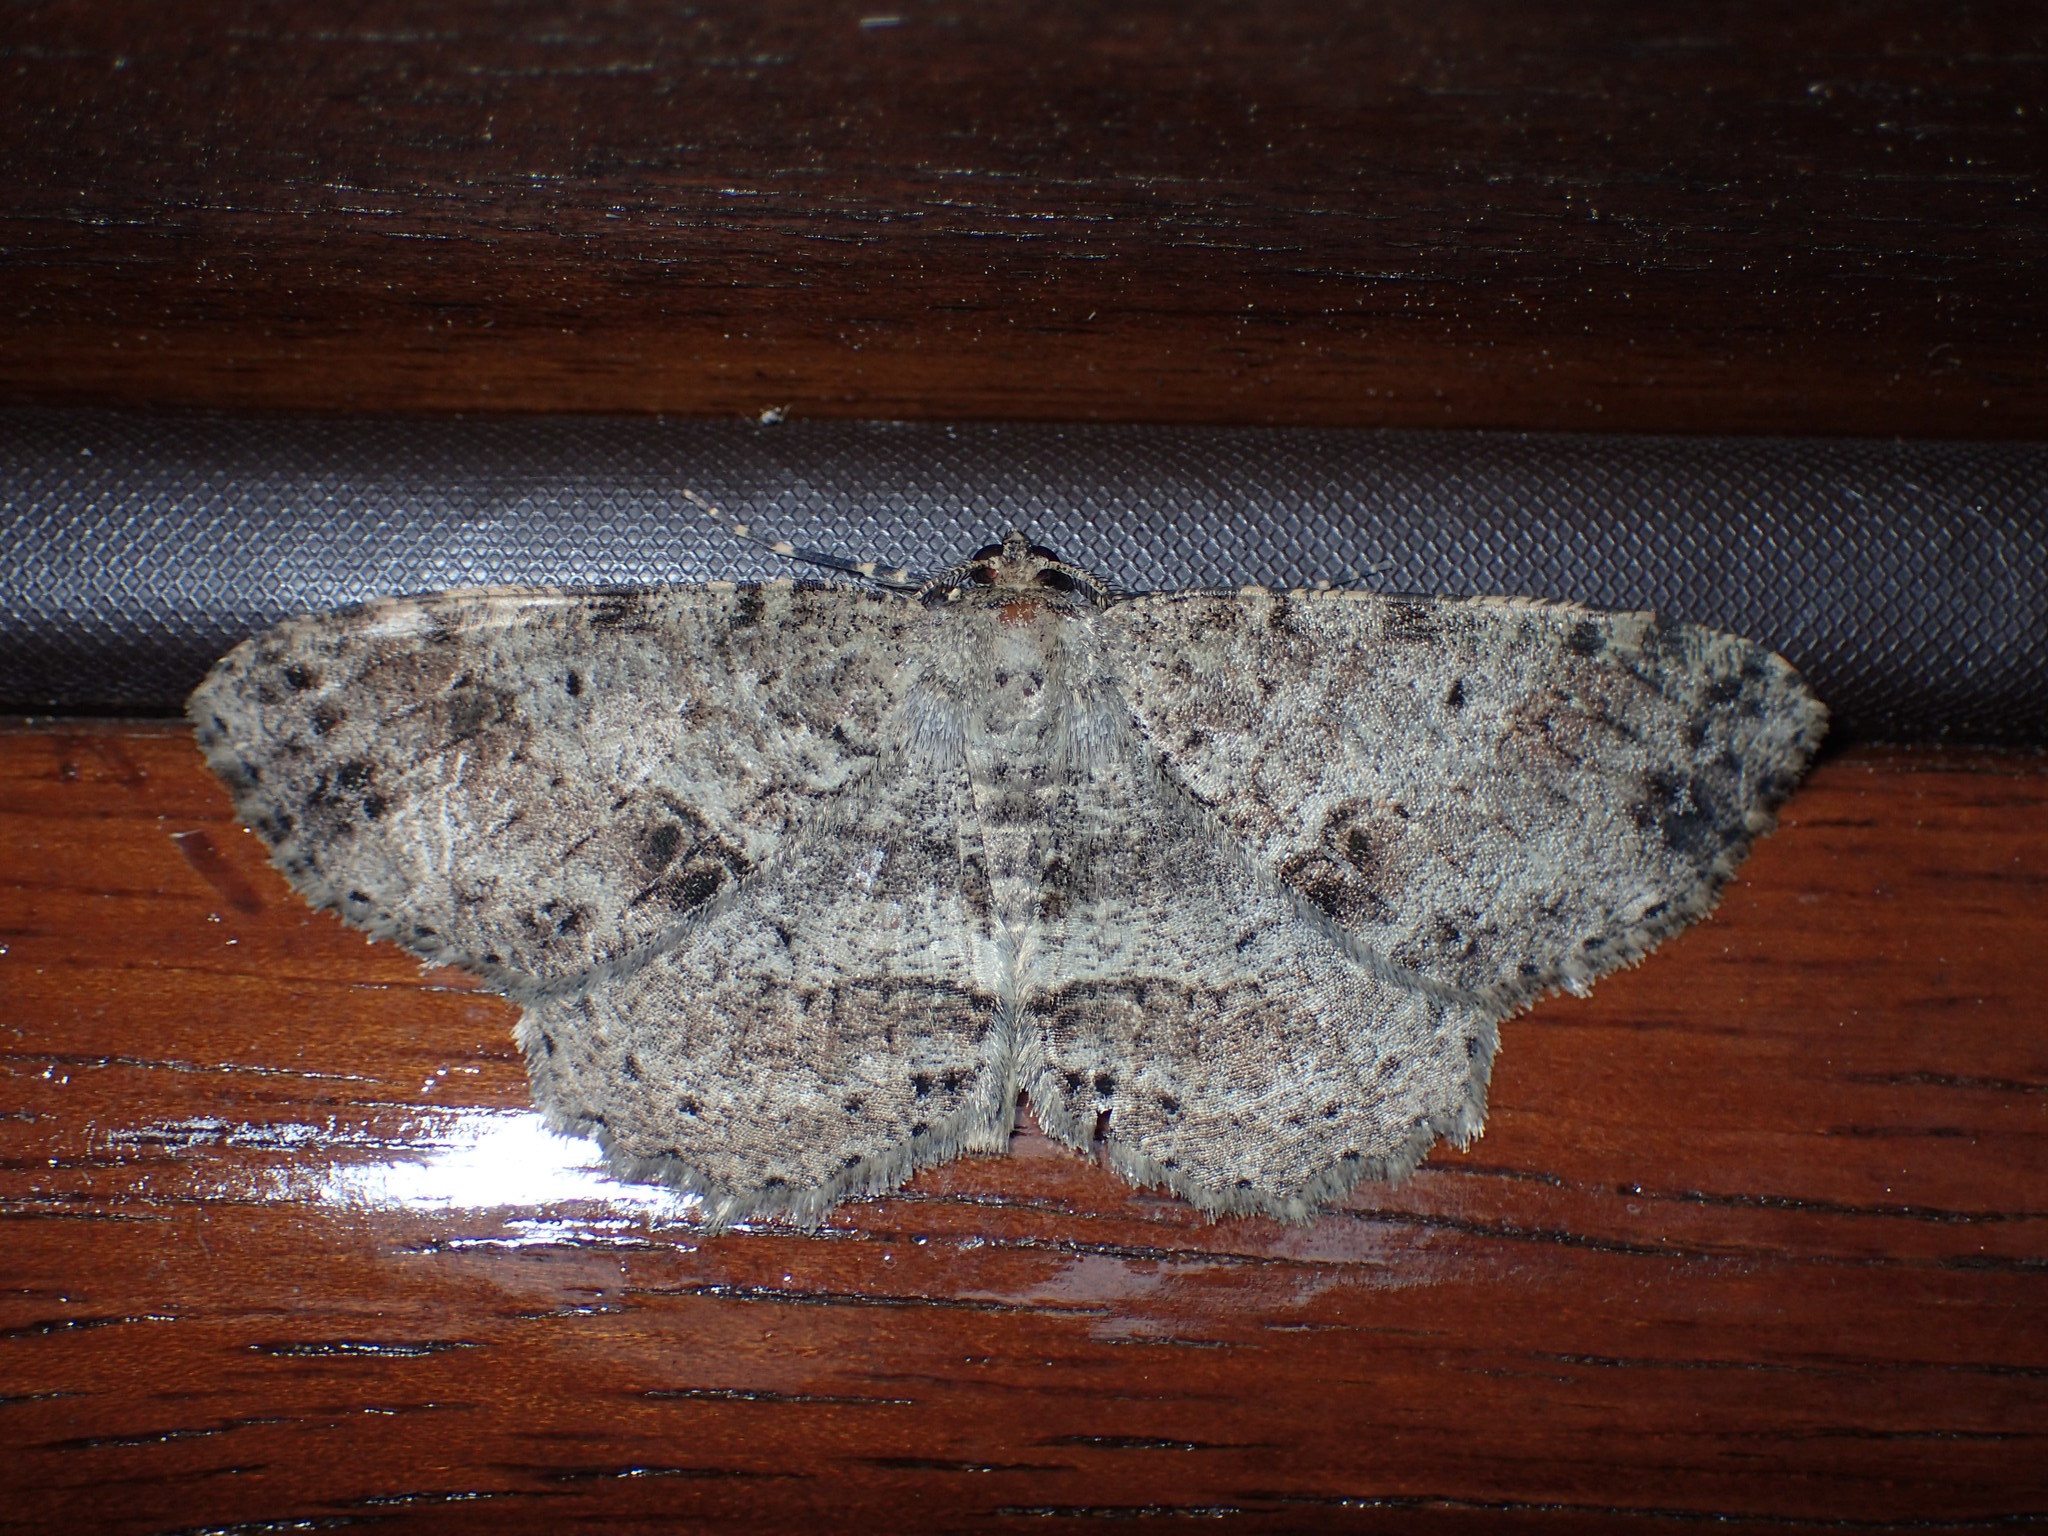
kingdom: Animalia
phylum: Arthropoda
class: Insecta
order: Lepidoptera
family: Geometridae
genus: Melanolophia
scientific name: Melanolophia canadaria
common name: Canadian melanolophia
